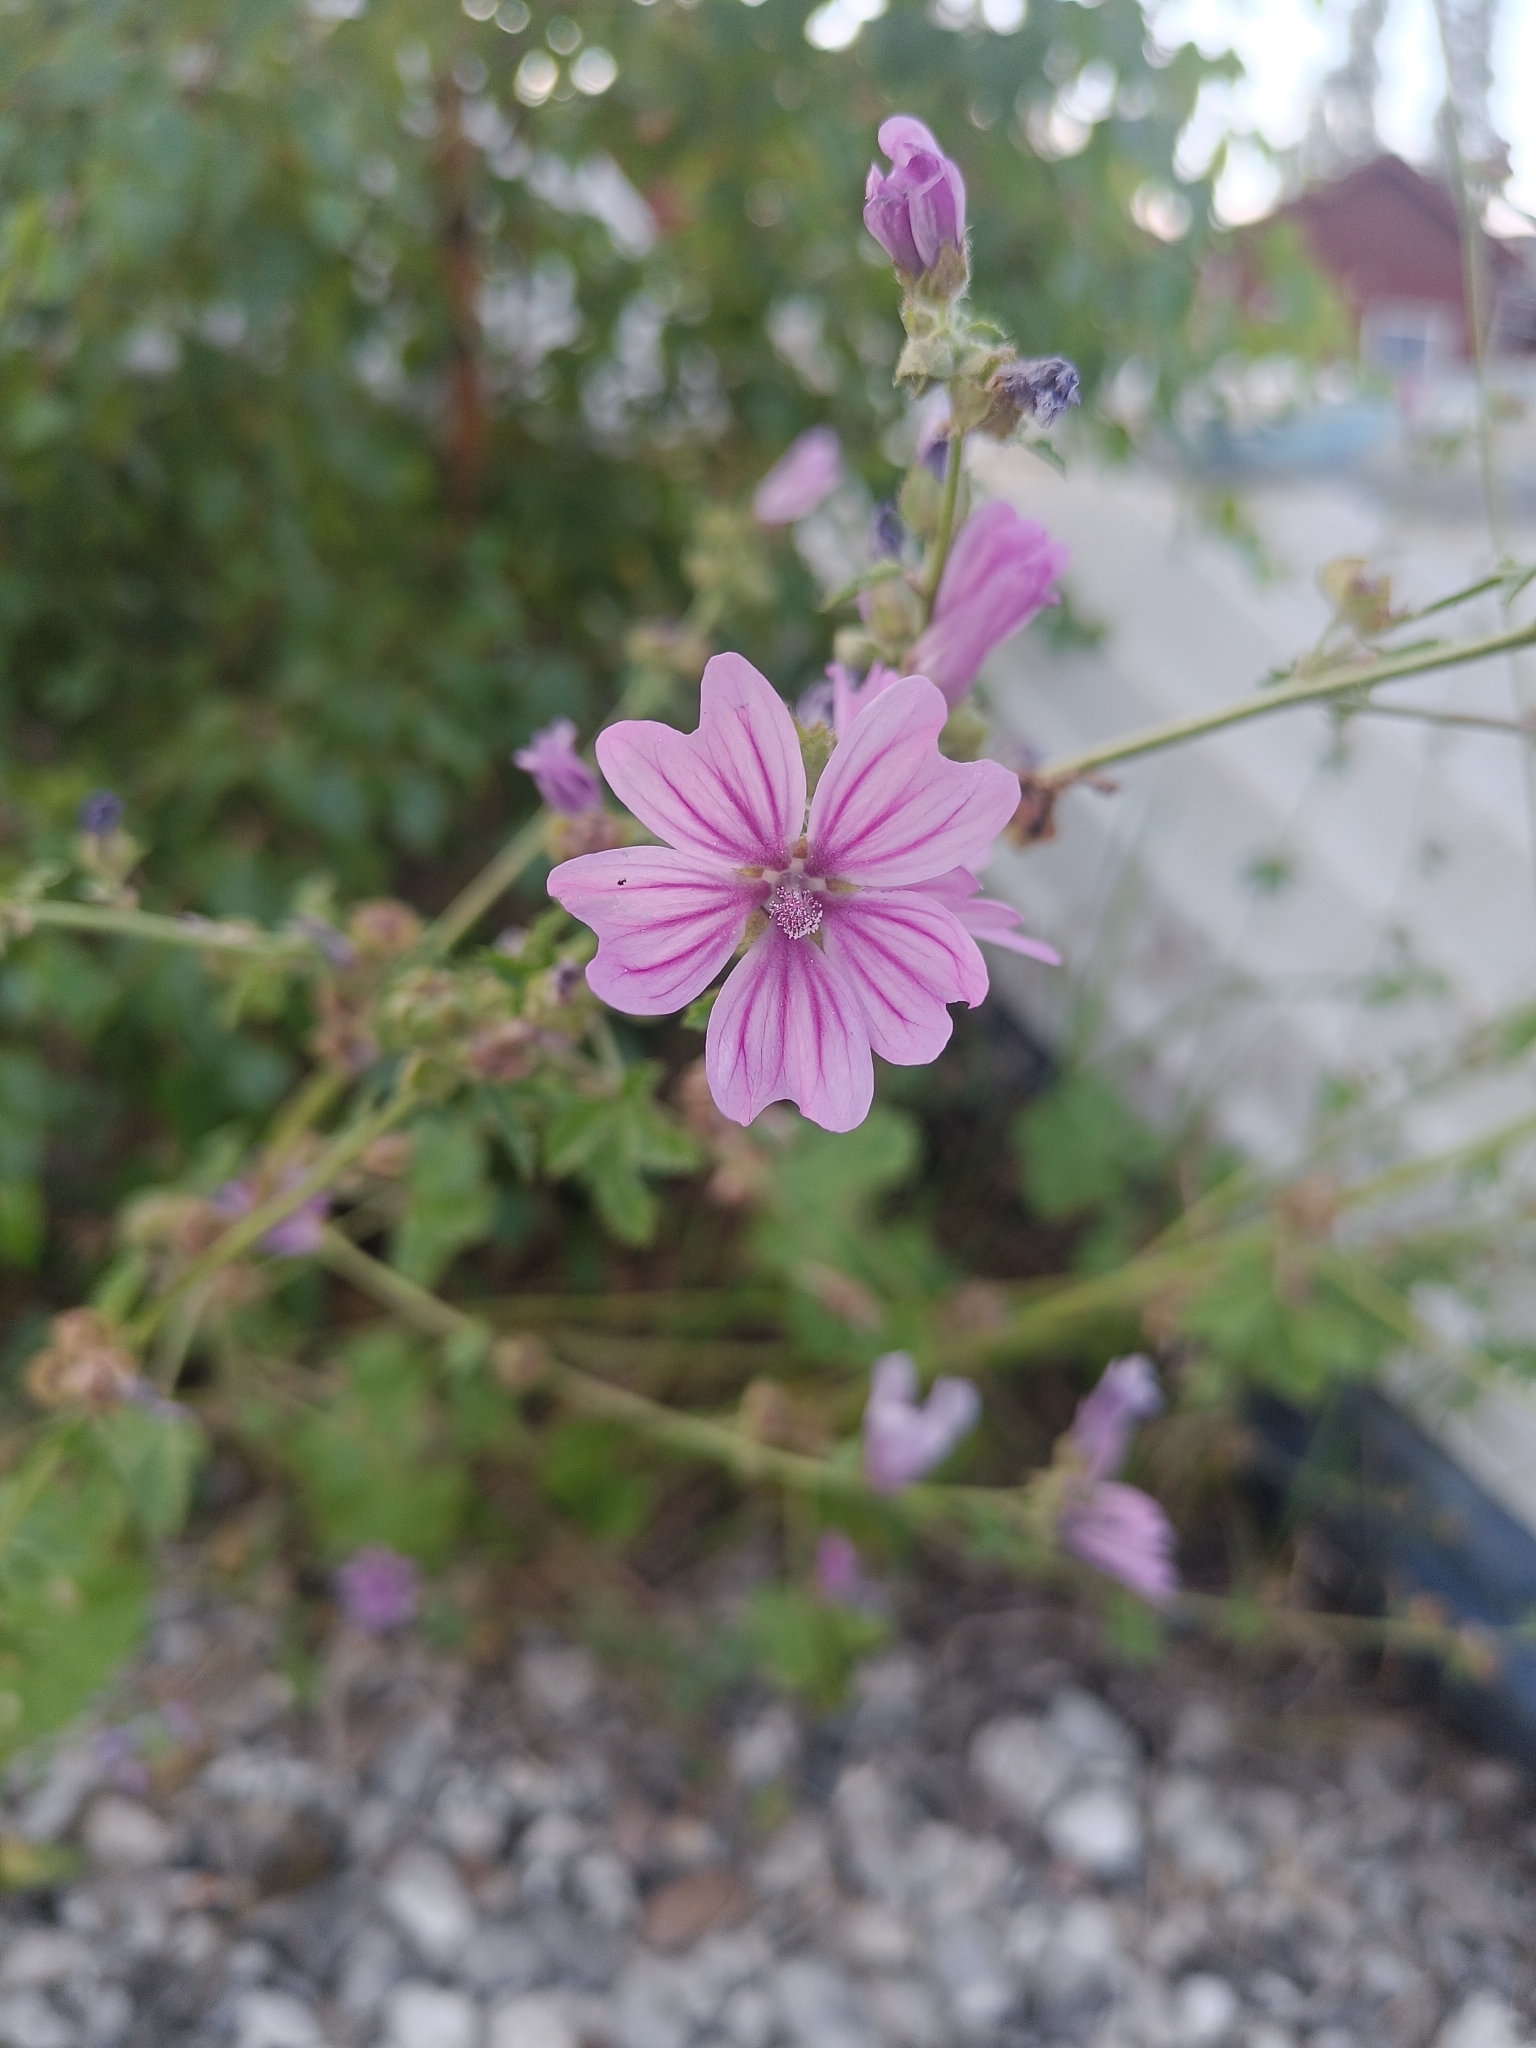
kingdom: Plantae
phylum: Tracheophyta
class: Magnoliopsida
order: Malvales
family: Malvaceae
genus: Malva
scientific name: Malva sylvestris
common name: Common mallow
